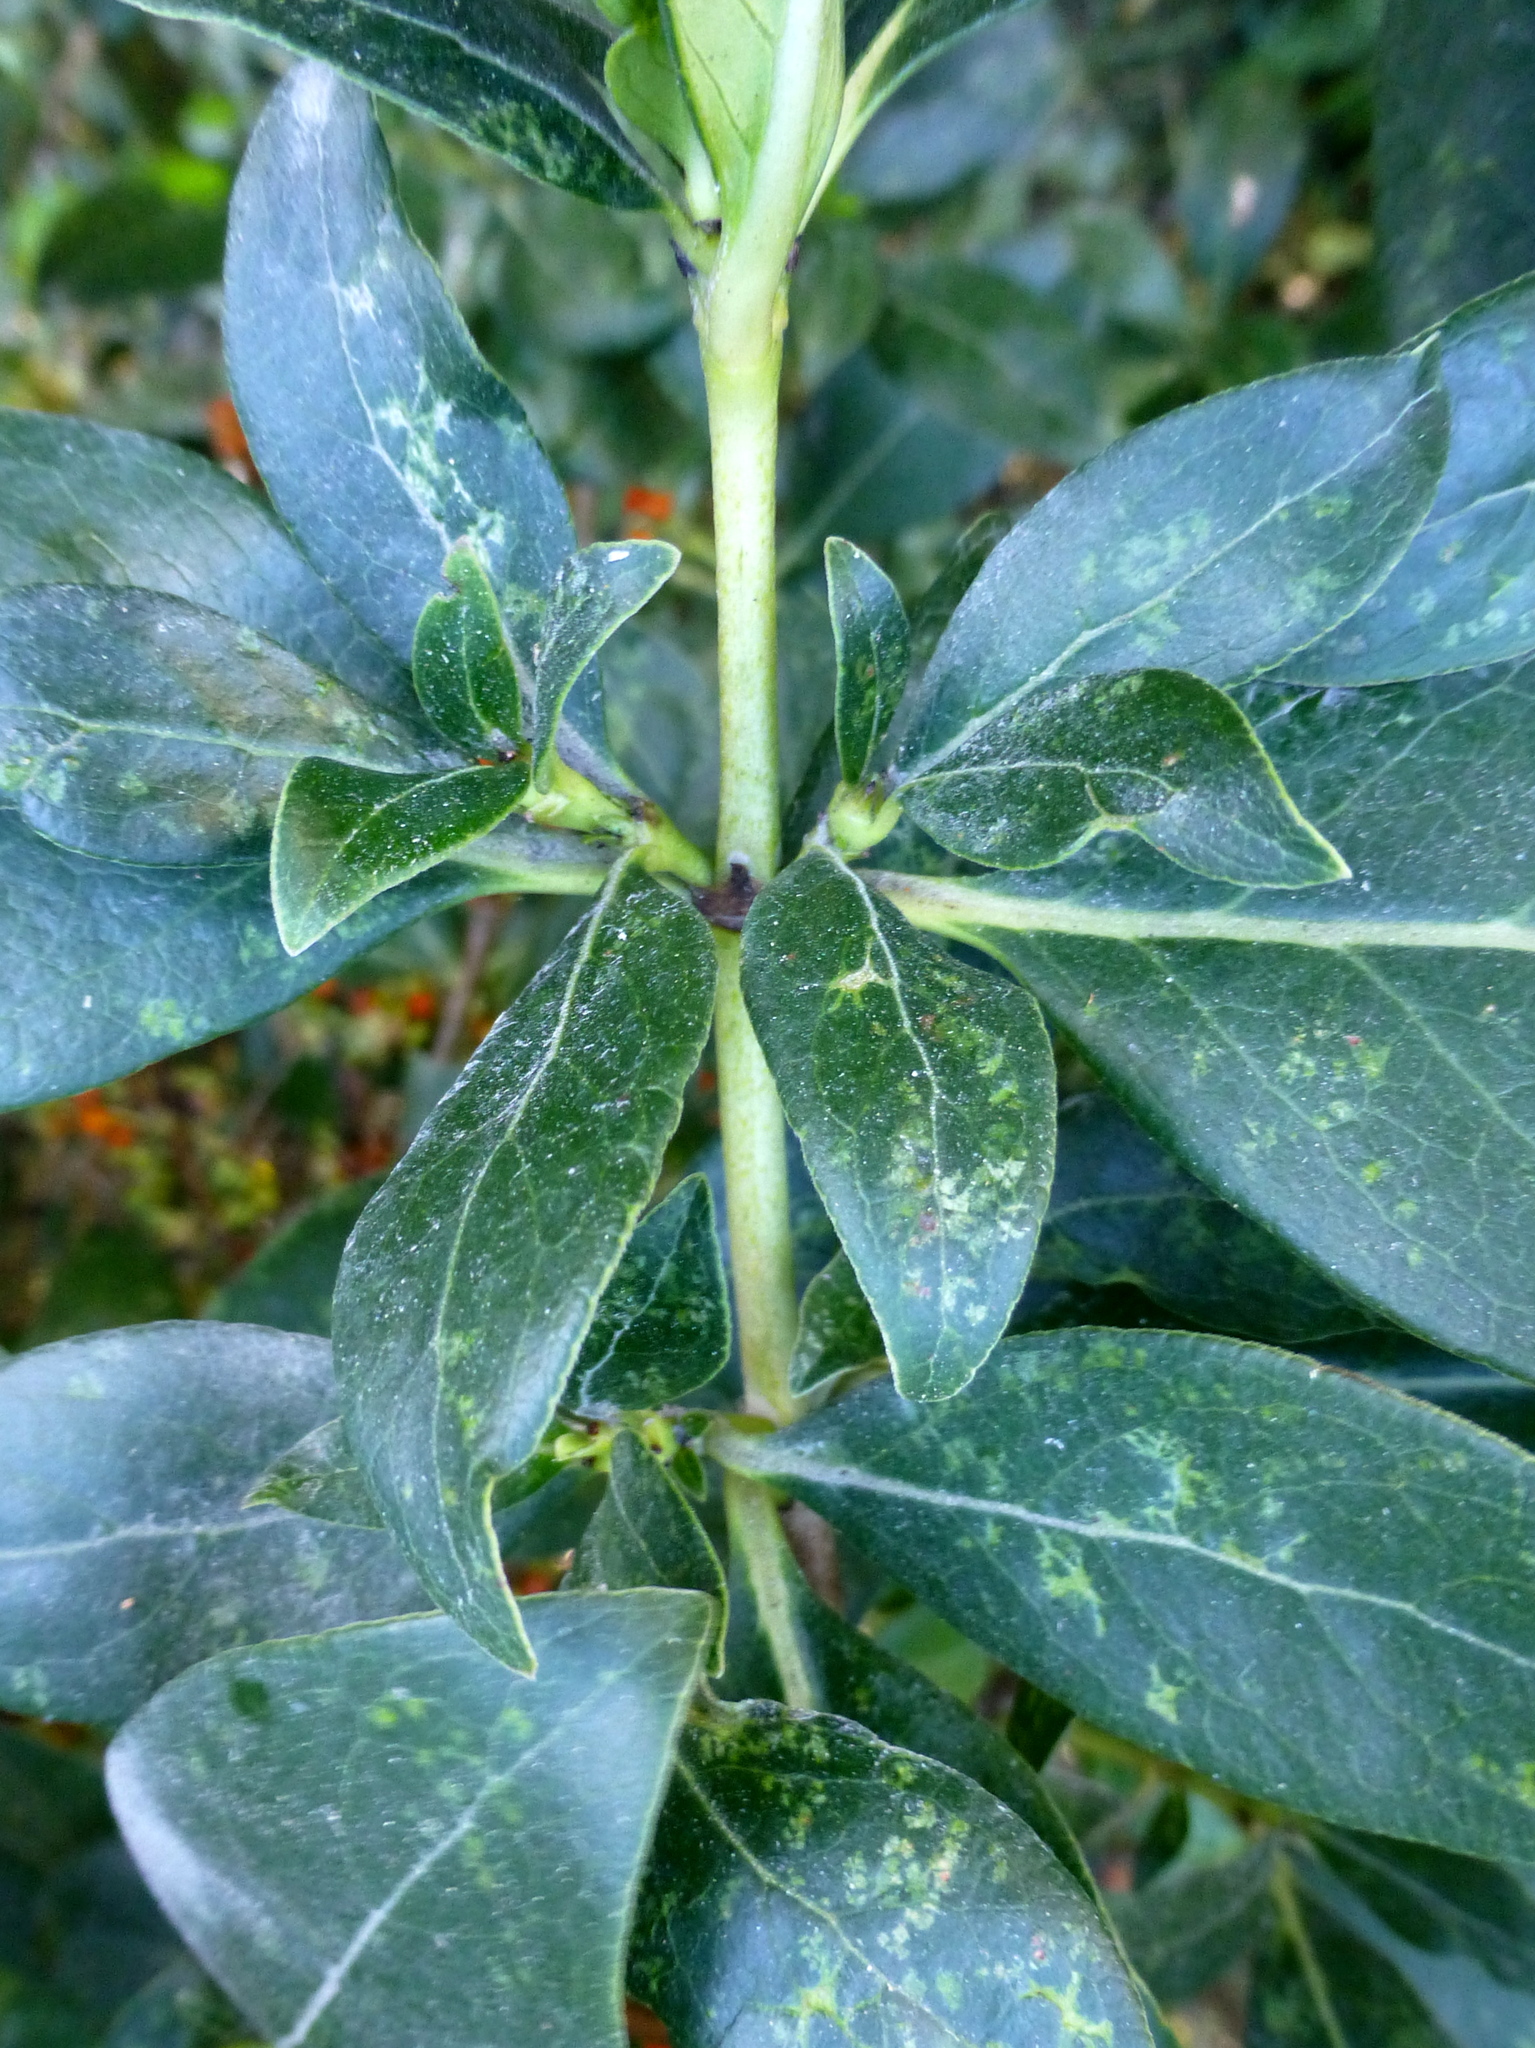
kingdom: Plantae
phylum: Tracheophyta
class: Magnoliopsida
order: Gentianales
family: Rubiaceae
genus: Coprosma
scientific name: Coprosma robusta
